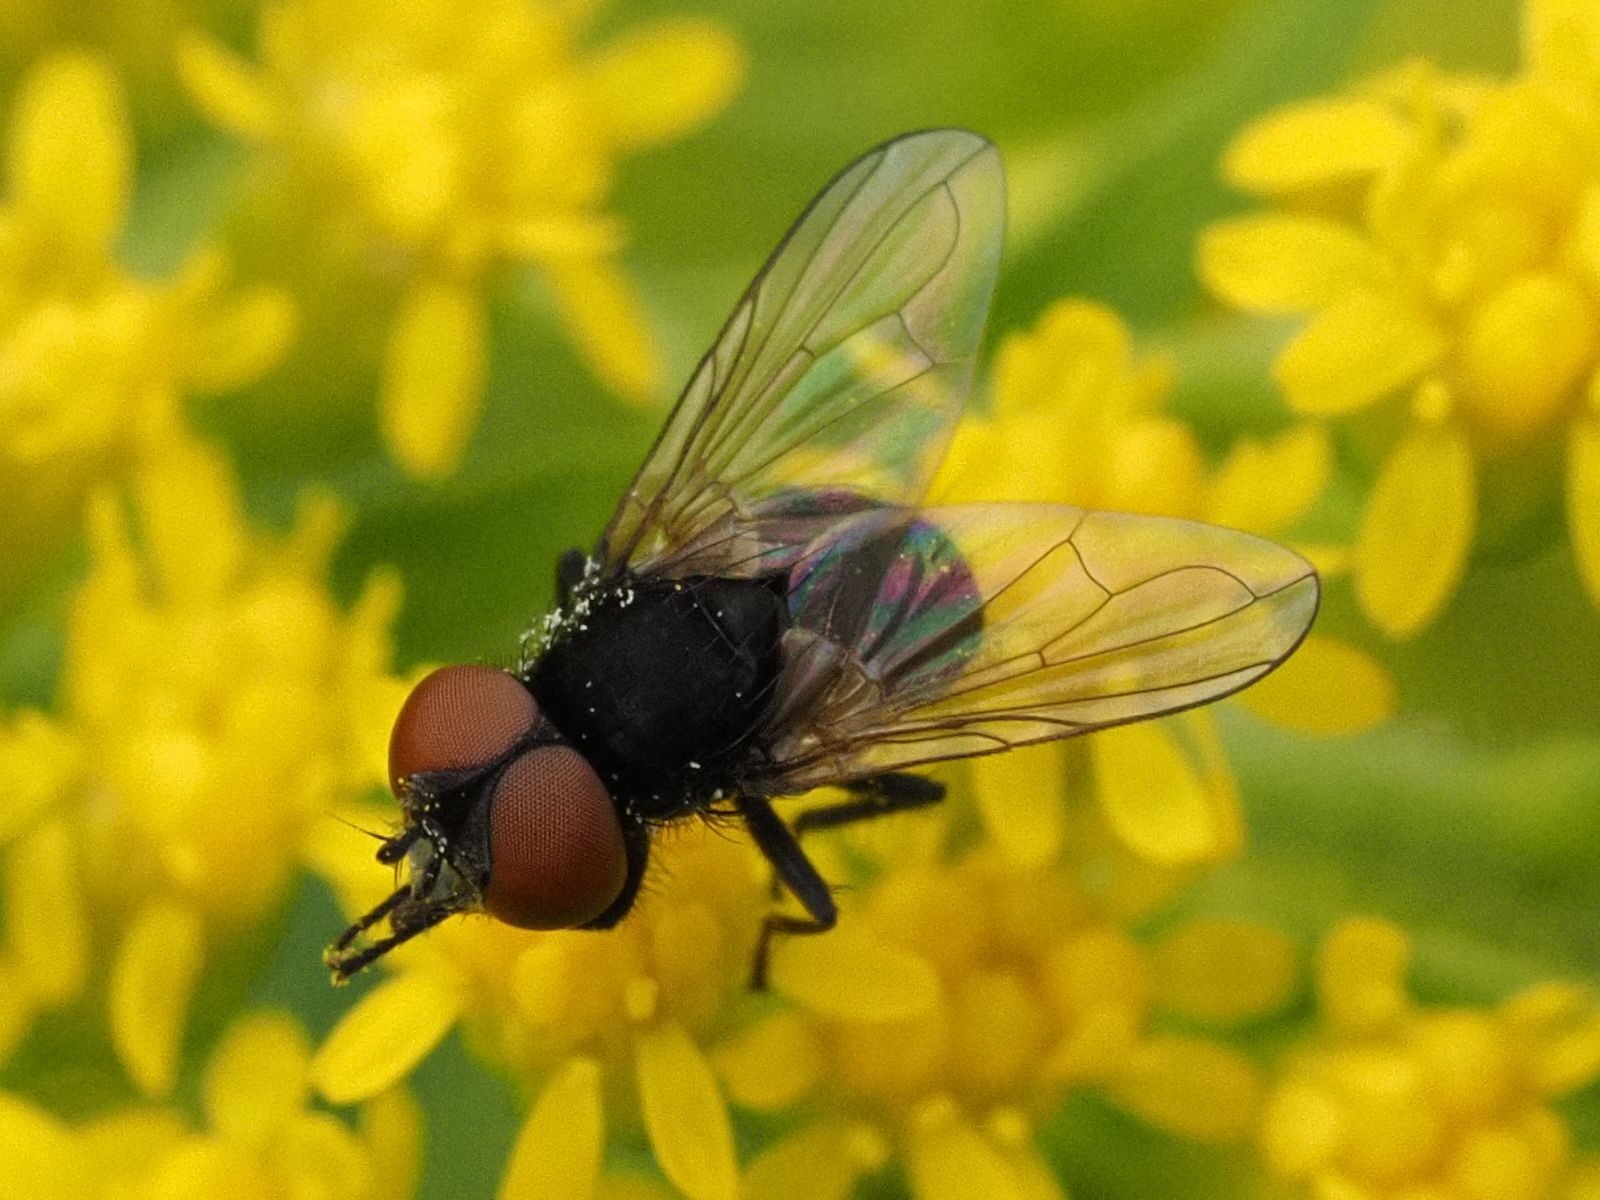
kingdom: Animalia
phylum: Arthropoda
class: Insecta
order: Diptera
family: Tachinidae
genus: Phasia
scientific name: Phasia barbifrons
